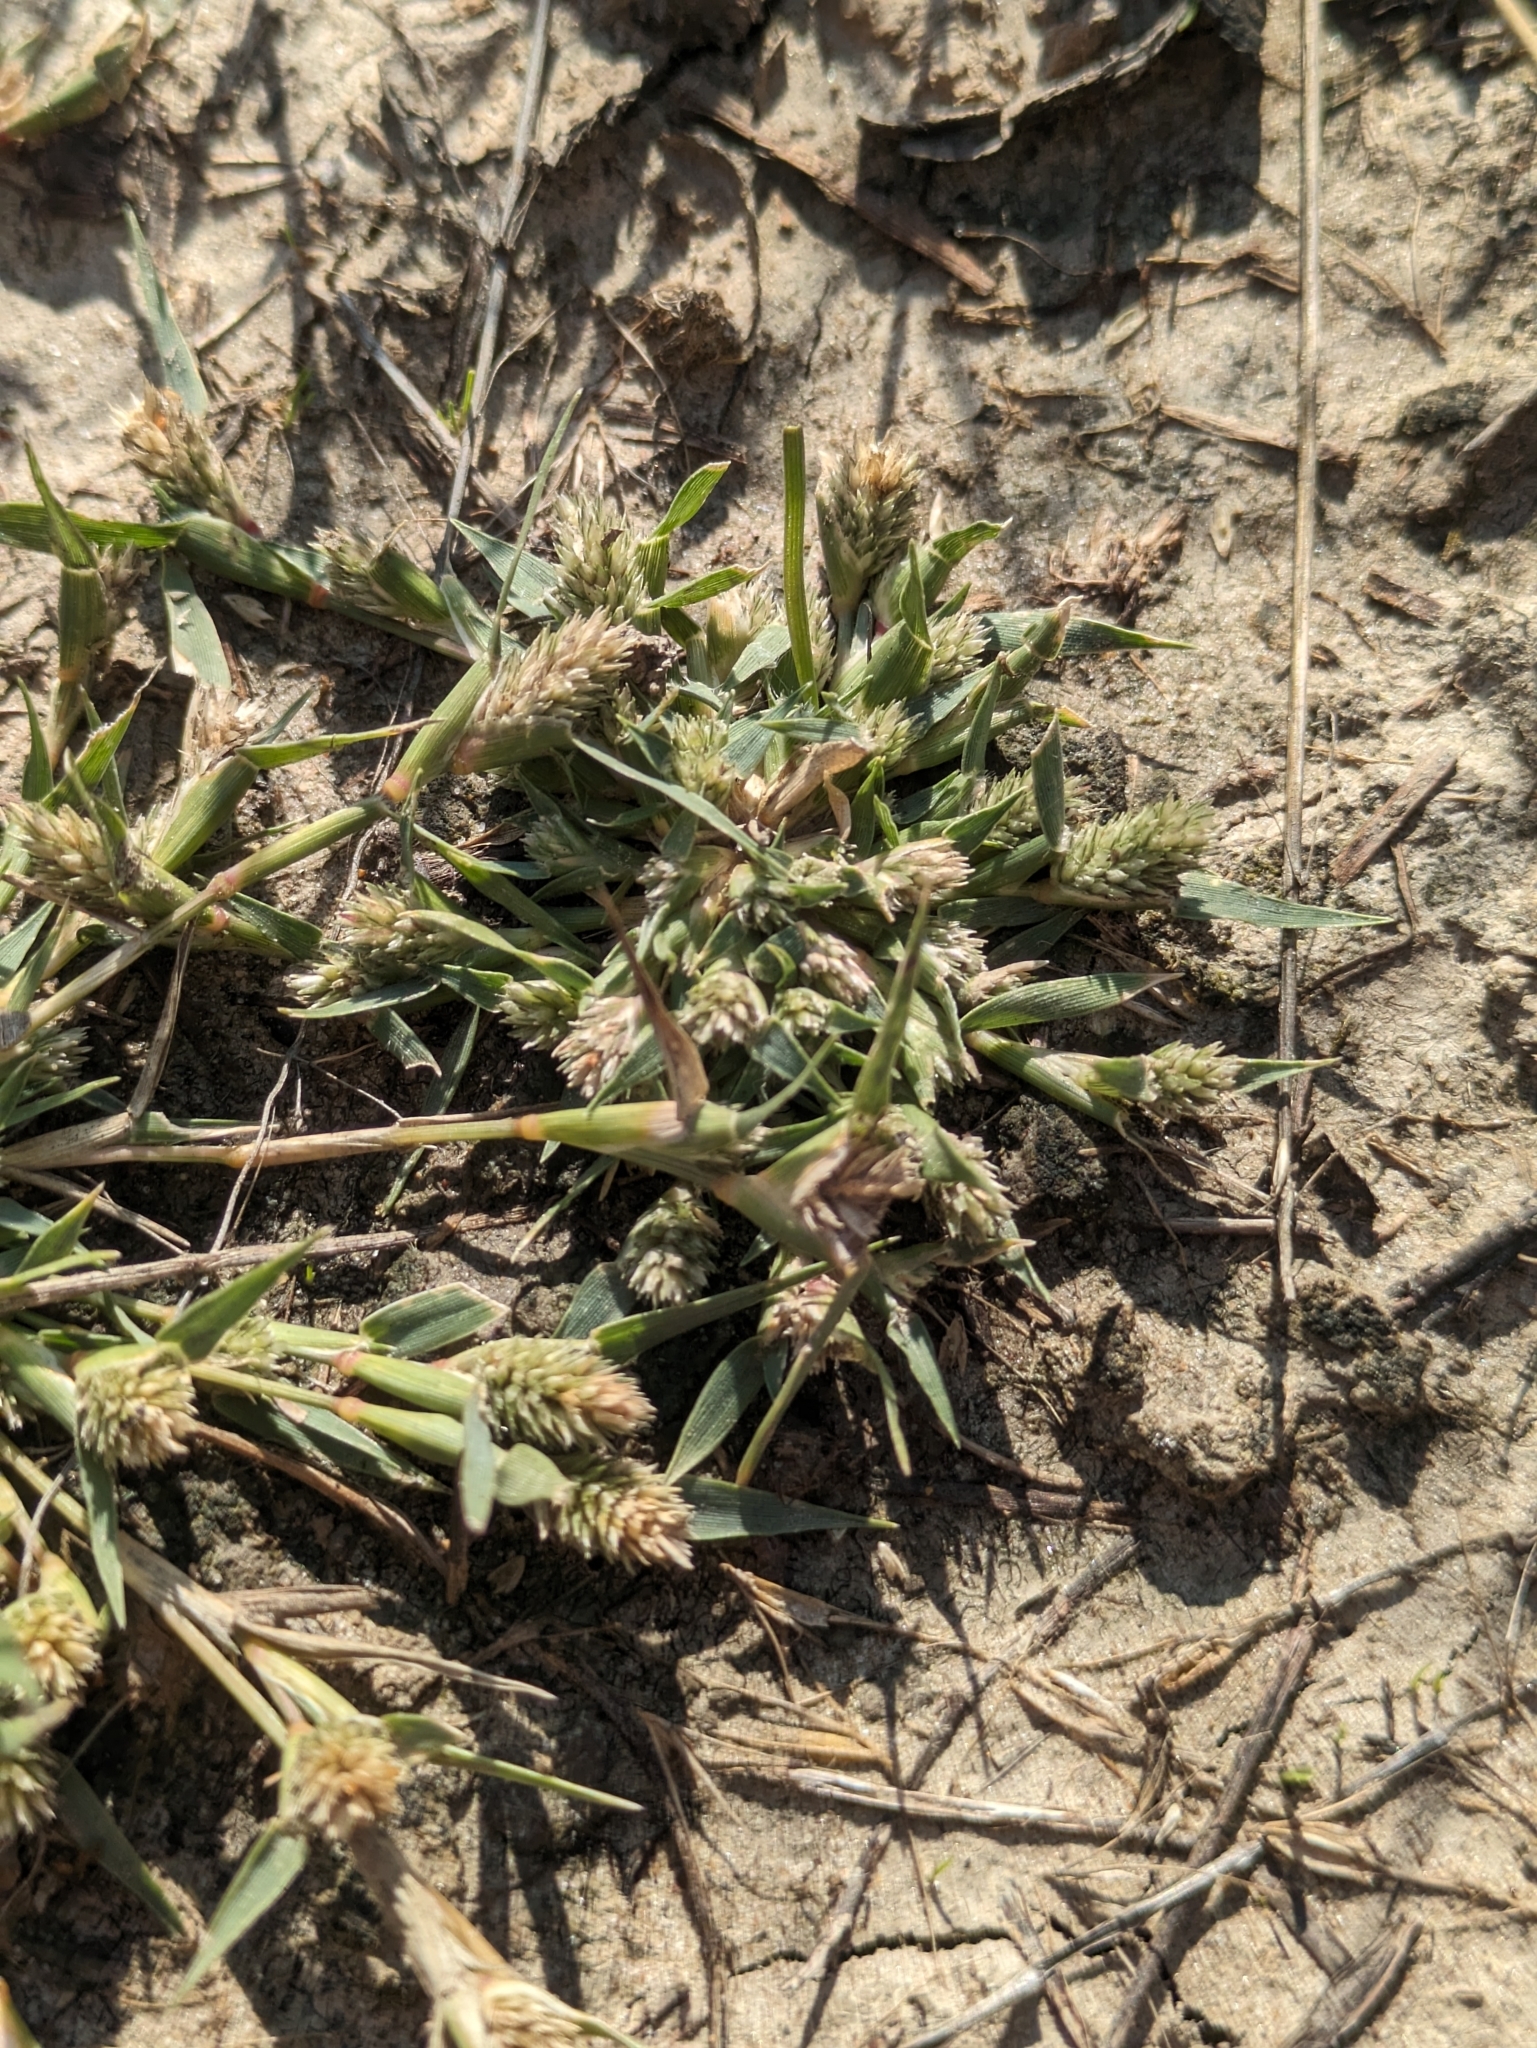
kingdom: Plantae
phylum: Tracheophyta
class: Liliopsida
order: Poales
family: Poaceae
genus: Sporobolus
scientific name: Sporobolus aculeatus
